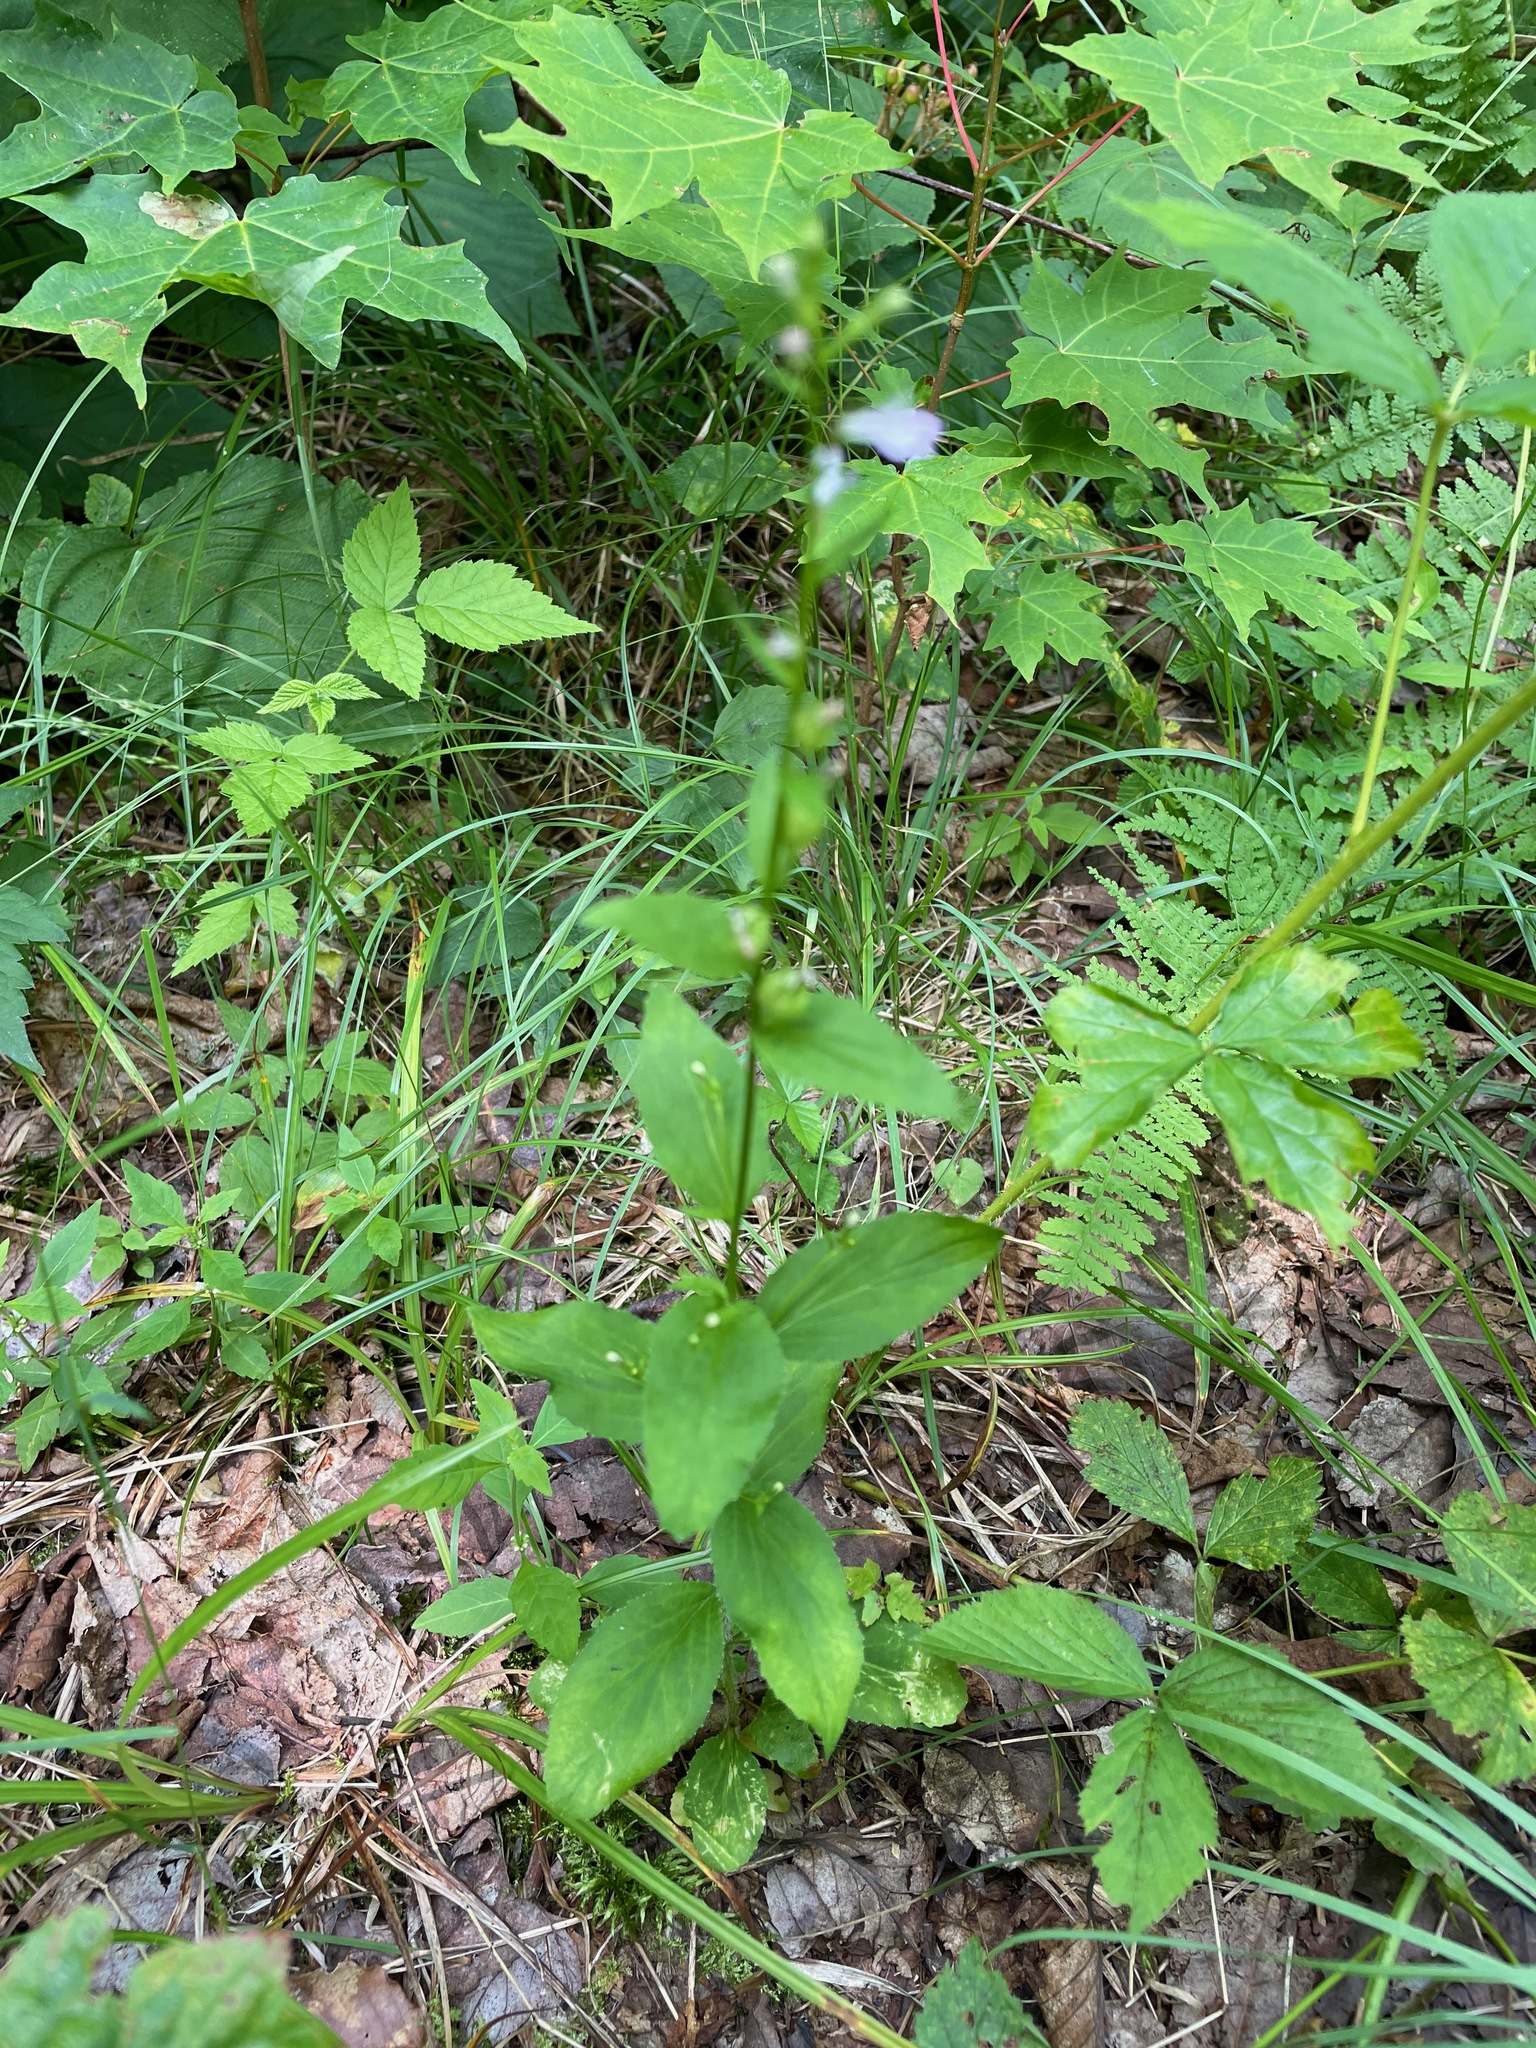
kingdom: Plantae
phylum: Tracheophyta
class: Magnoliopsida
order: Asterales
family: Campanulaceae
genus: Lobelia
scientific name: Lobelia inflata
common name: Indian tobacco
